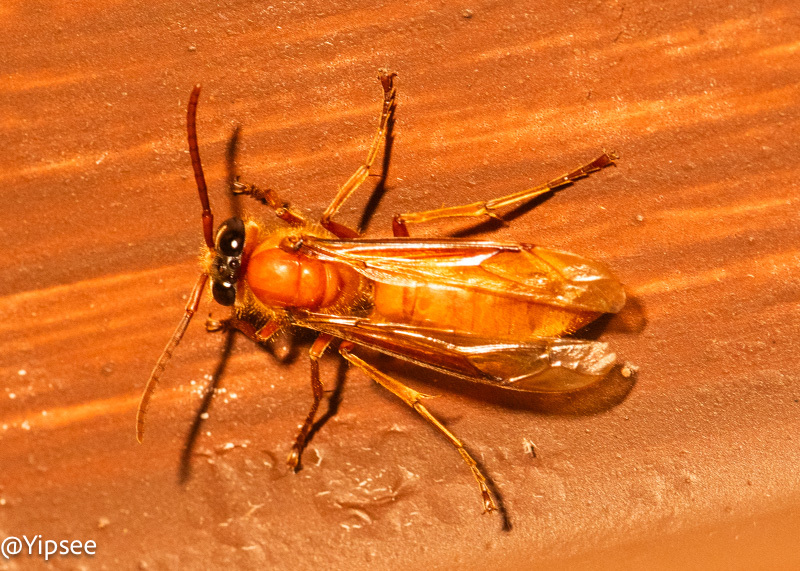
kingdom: Animalia
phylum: Arthropoda
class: Insecta
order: Hymenoptera
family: Vespidae
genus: Provespa
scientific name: Provespa barthelemyi
